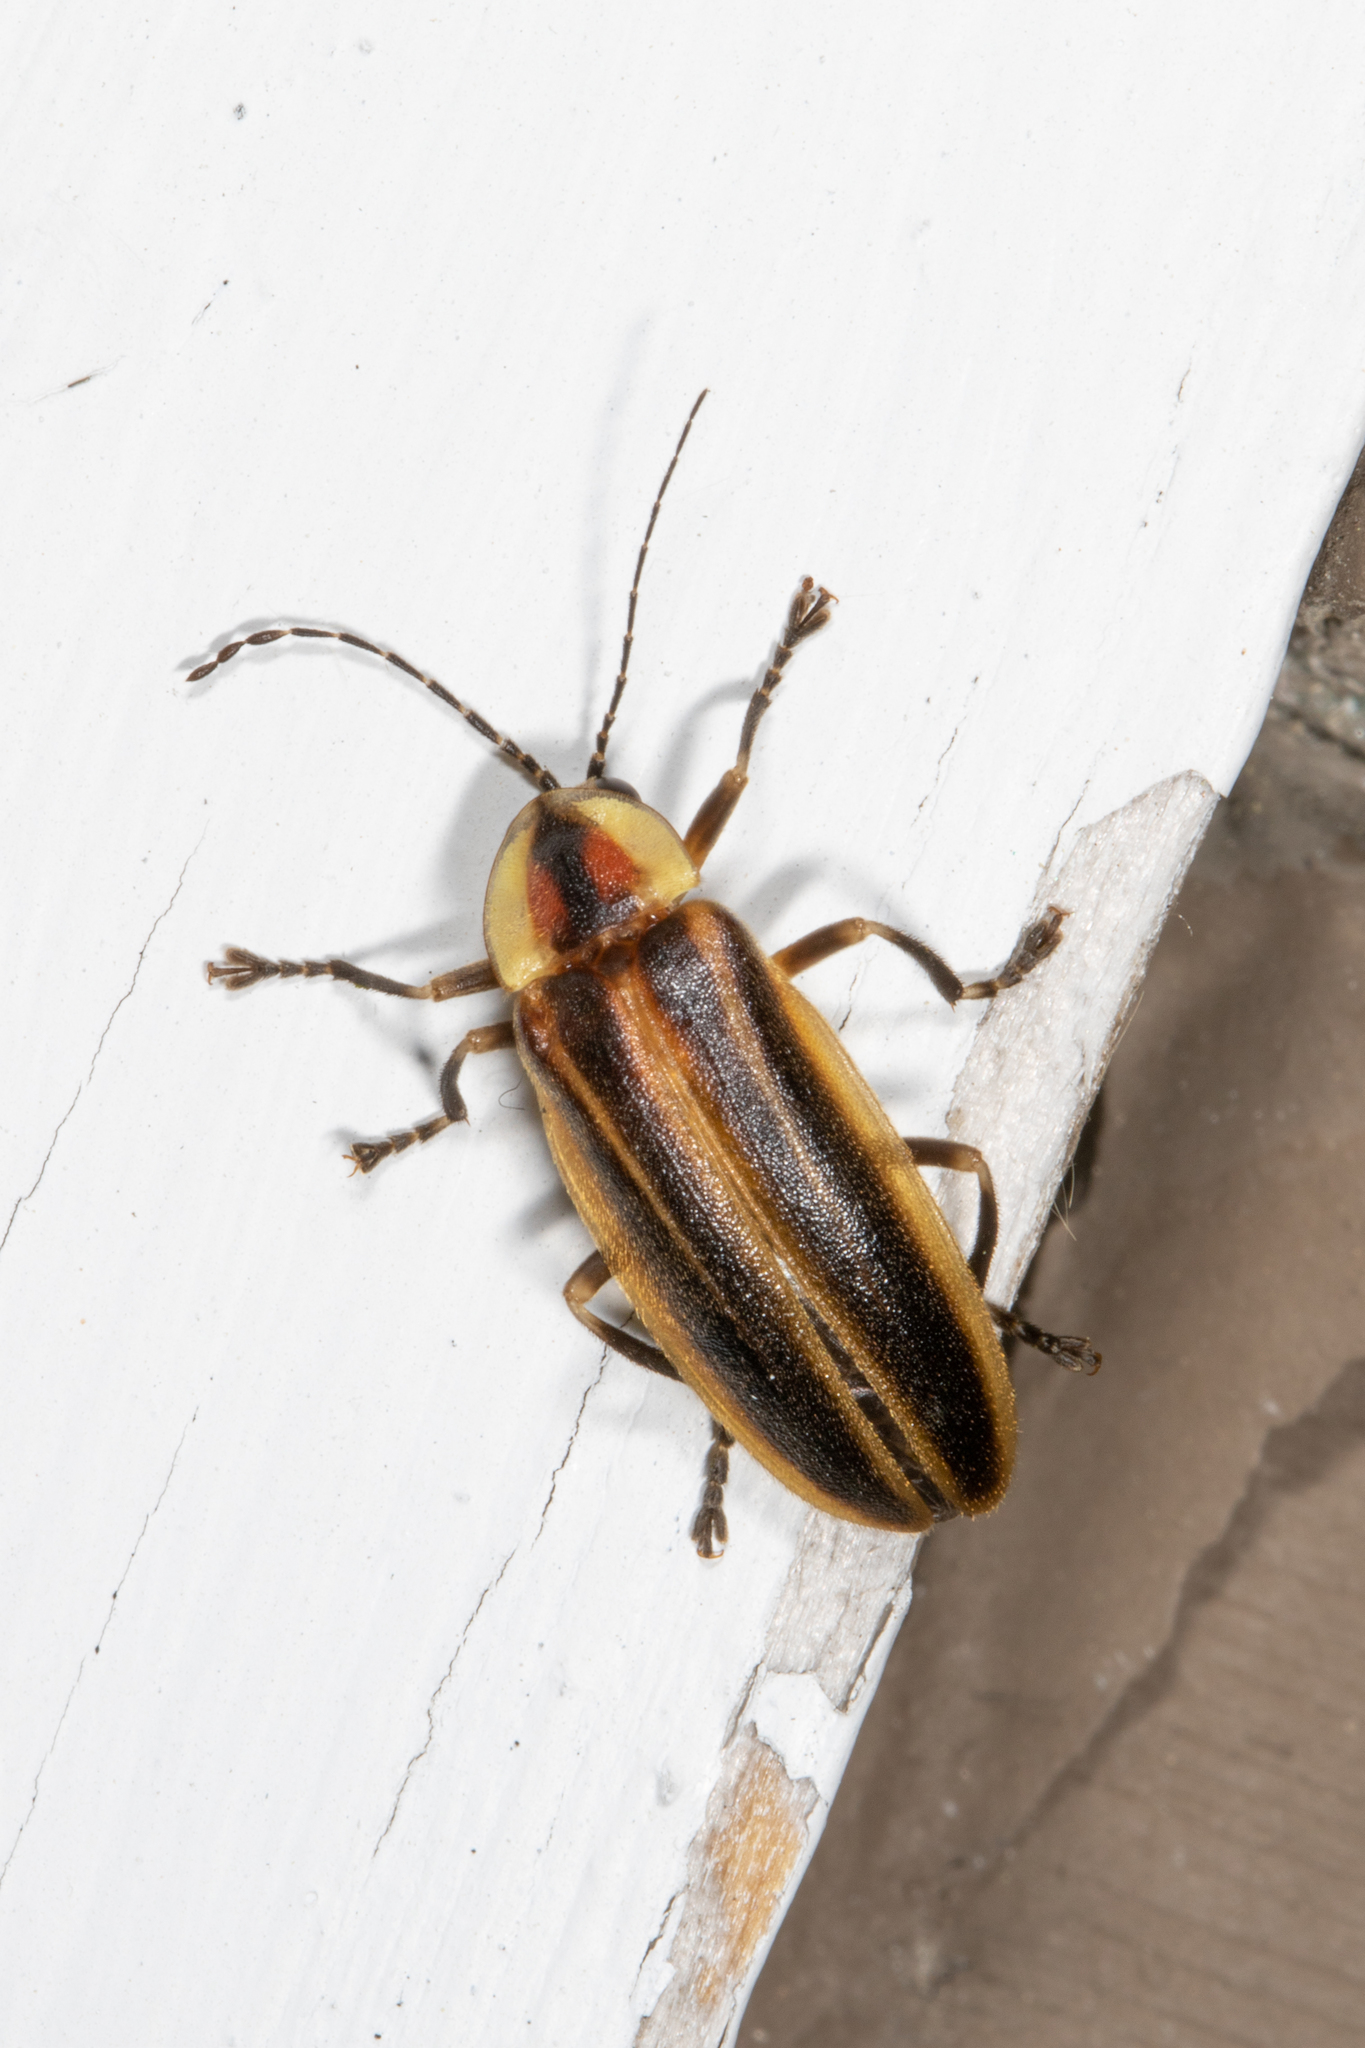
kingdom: Animalia
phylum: Arthropoda
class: Insecta
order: Coleoptera
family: Lampyridae
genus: Photuris
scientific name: Photuris
